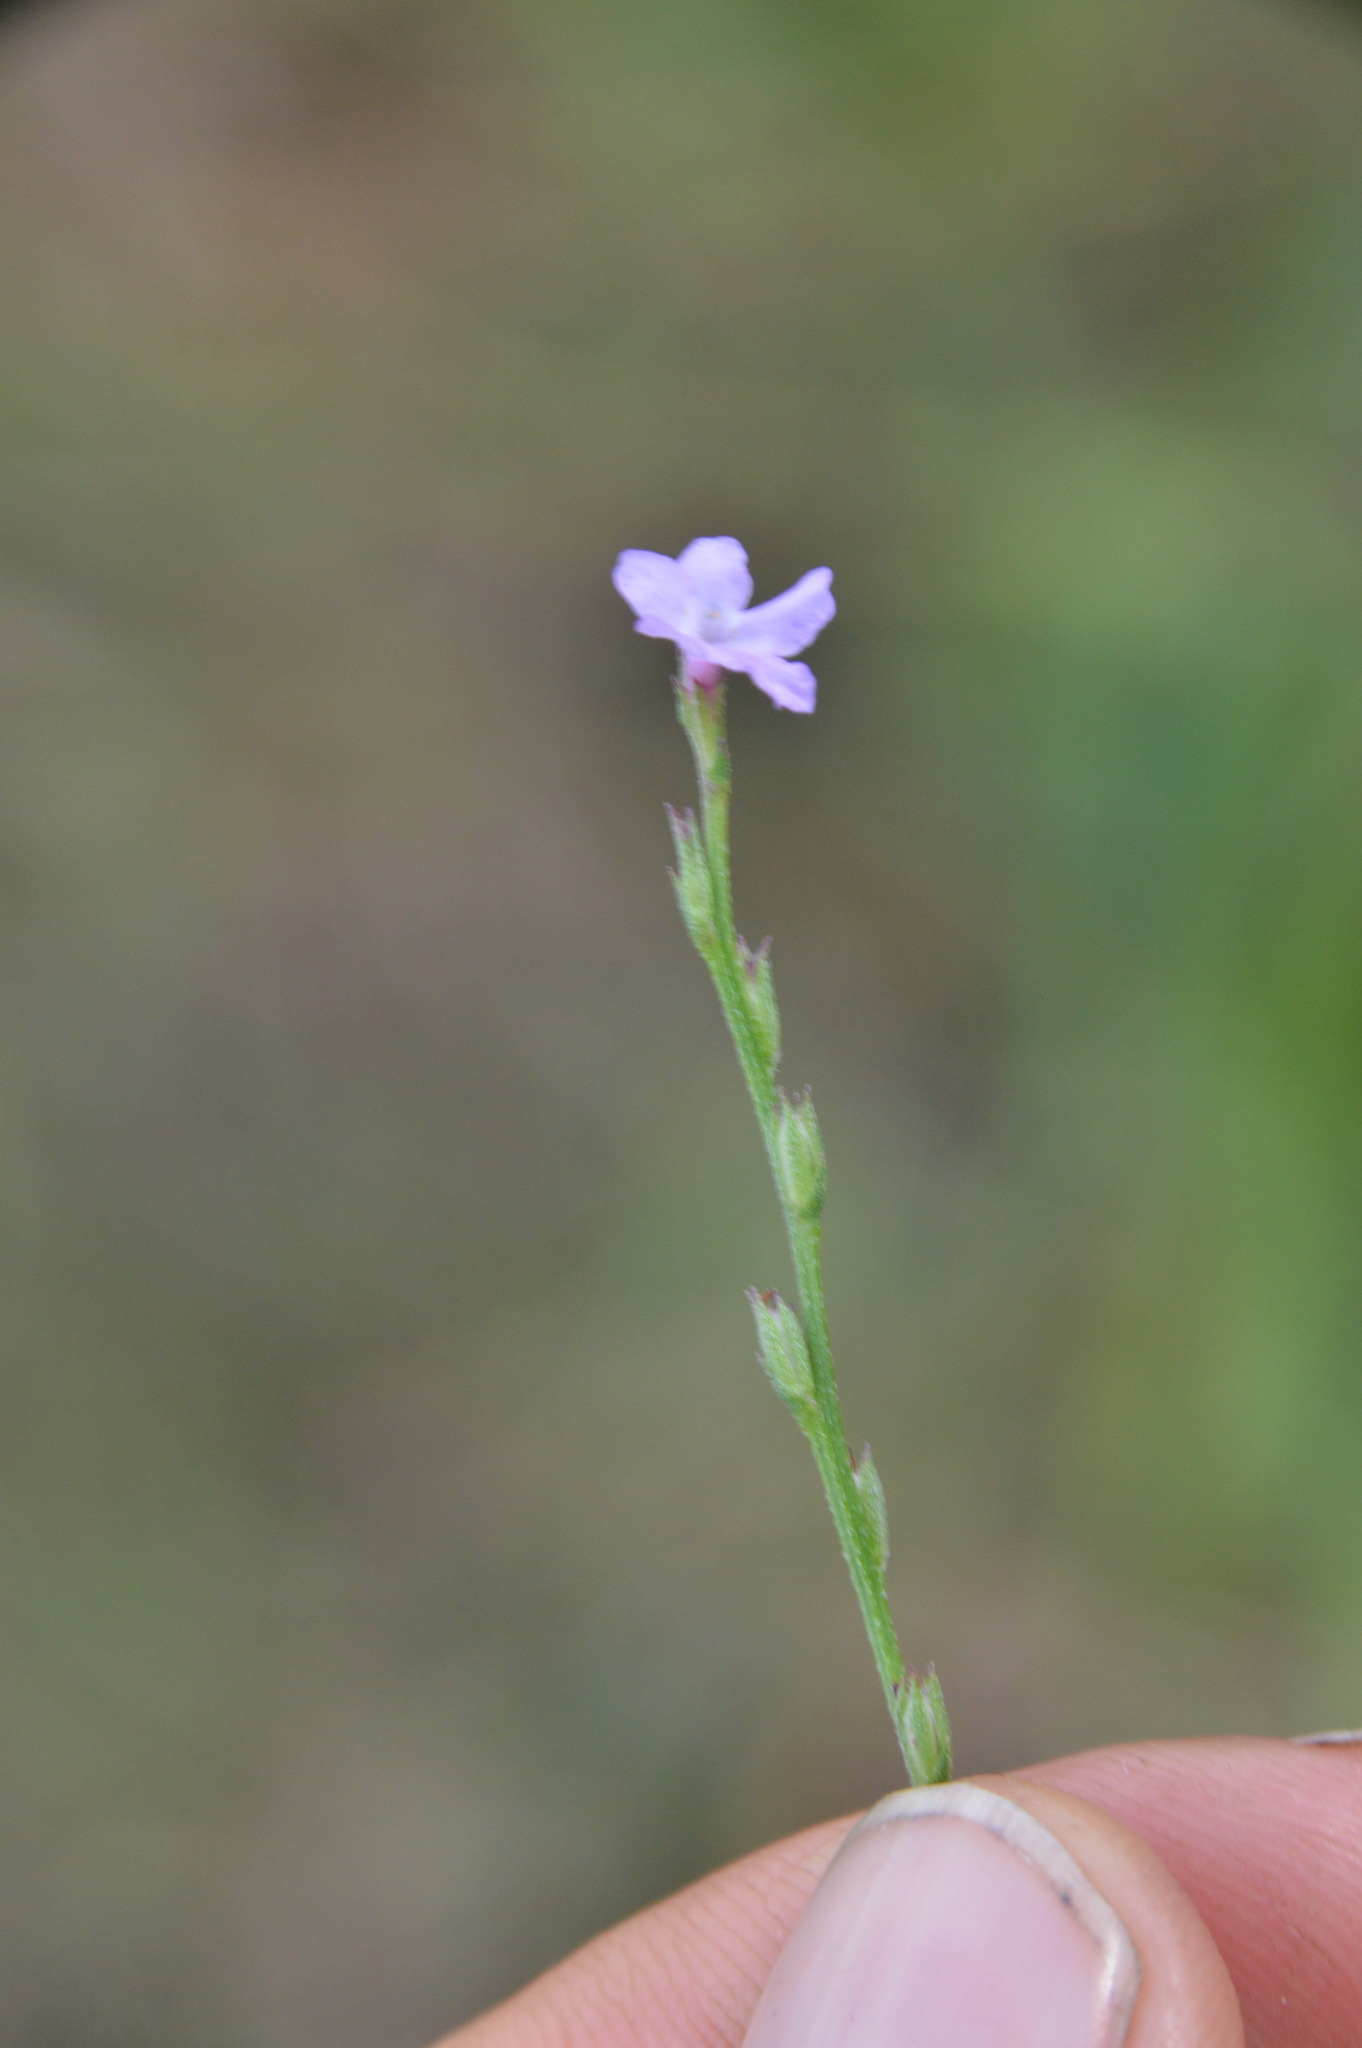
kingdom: Plantae
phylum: Tracheophyta
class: Magnoliopsida
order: Lamiales
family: Verbenaceae
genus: Verbena
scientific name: Verbena halei
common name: Texas vervain
